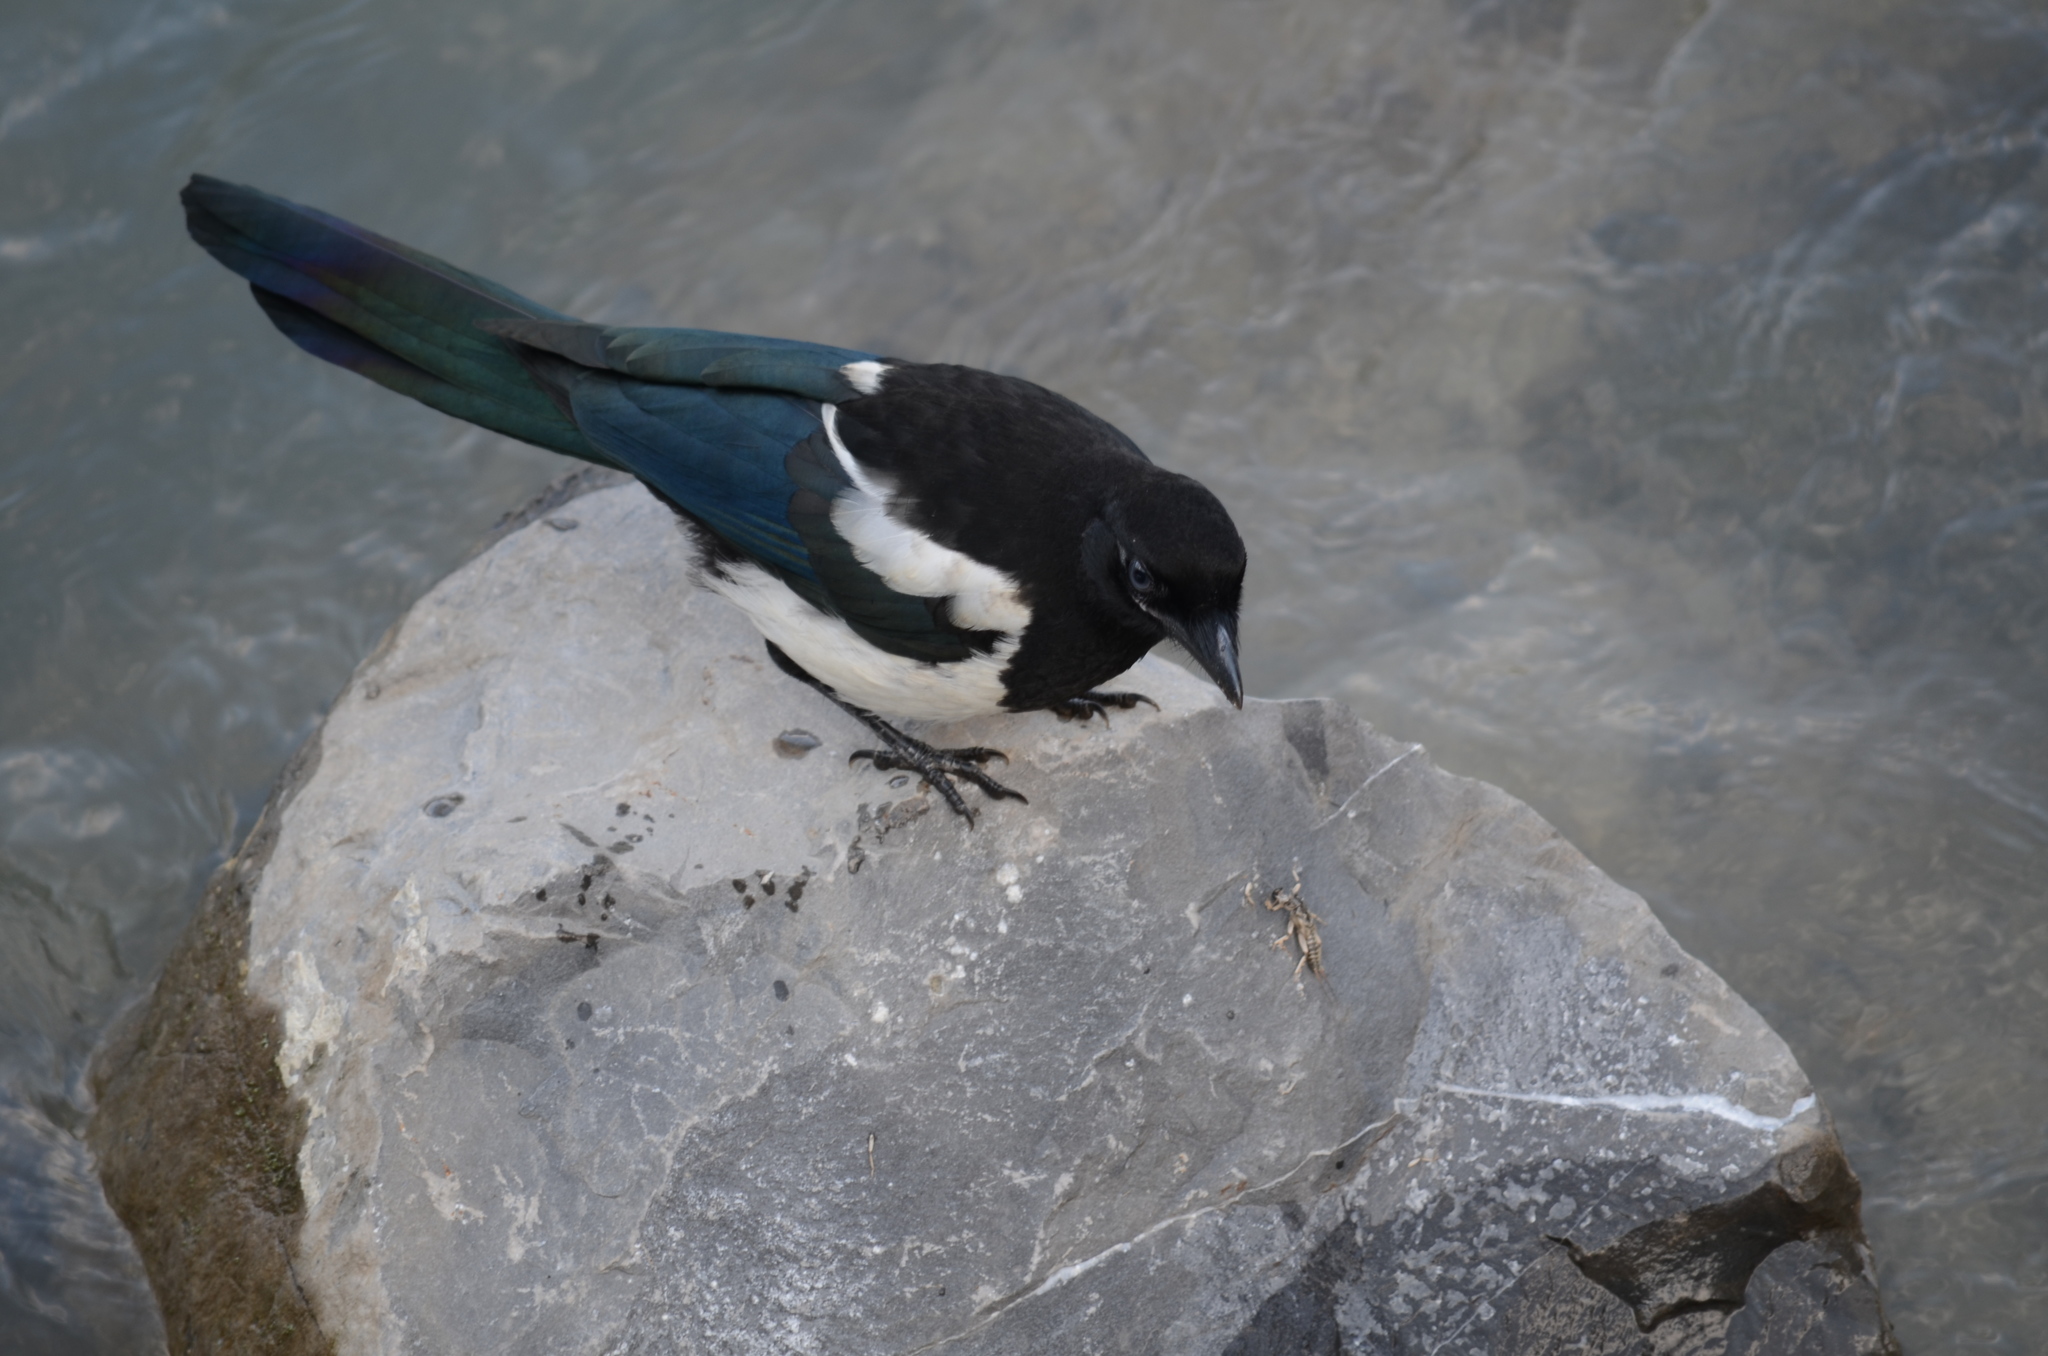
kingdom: Animalia
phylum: Chordata
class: Aves
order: Passeriformes
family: Corvidae
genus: Pica
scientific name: Pica hudsonia
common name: Black-billed magpie
